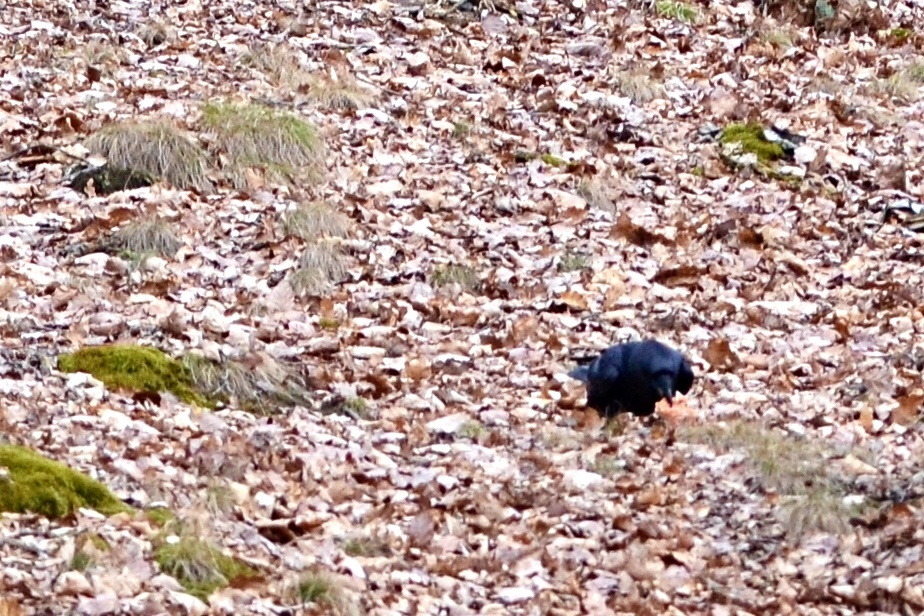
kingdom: Animalia
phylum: Chordata
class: Aves
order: Passeriformes
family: Corvidae
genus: Corvus
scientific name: Corvus corax
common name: Common raven
